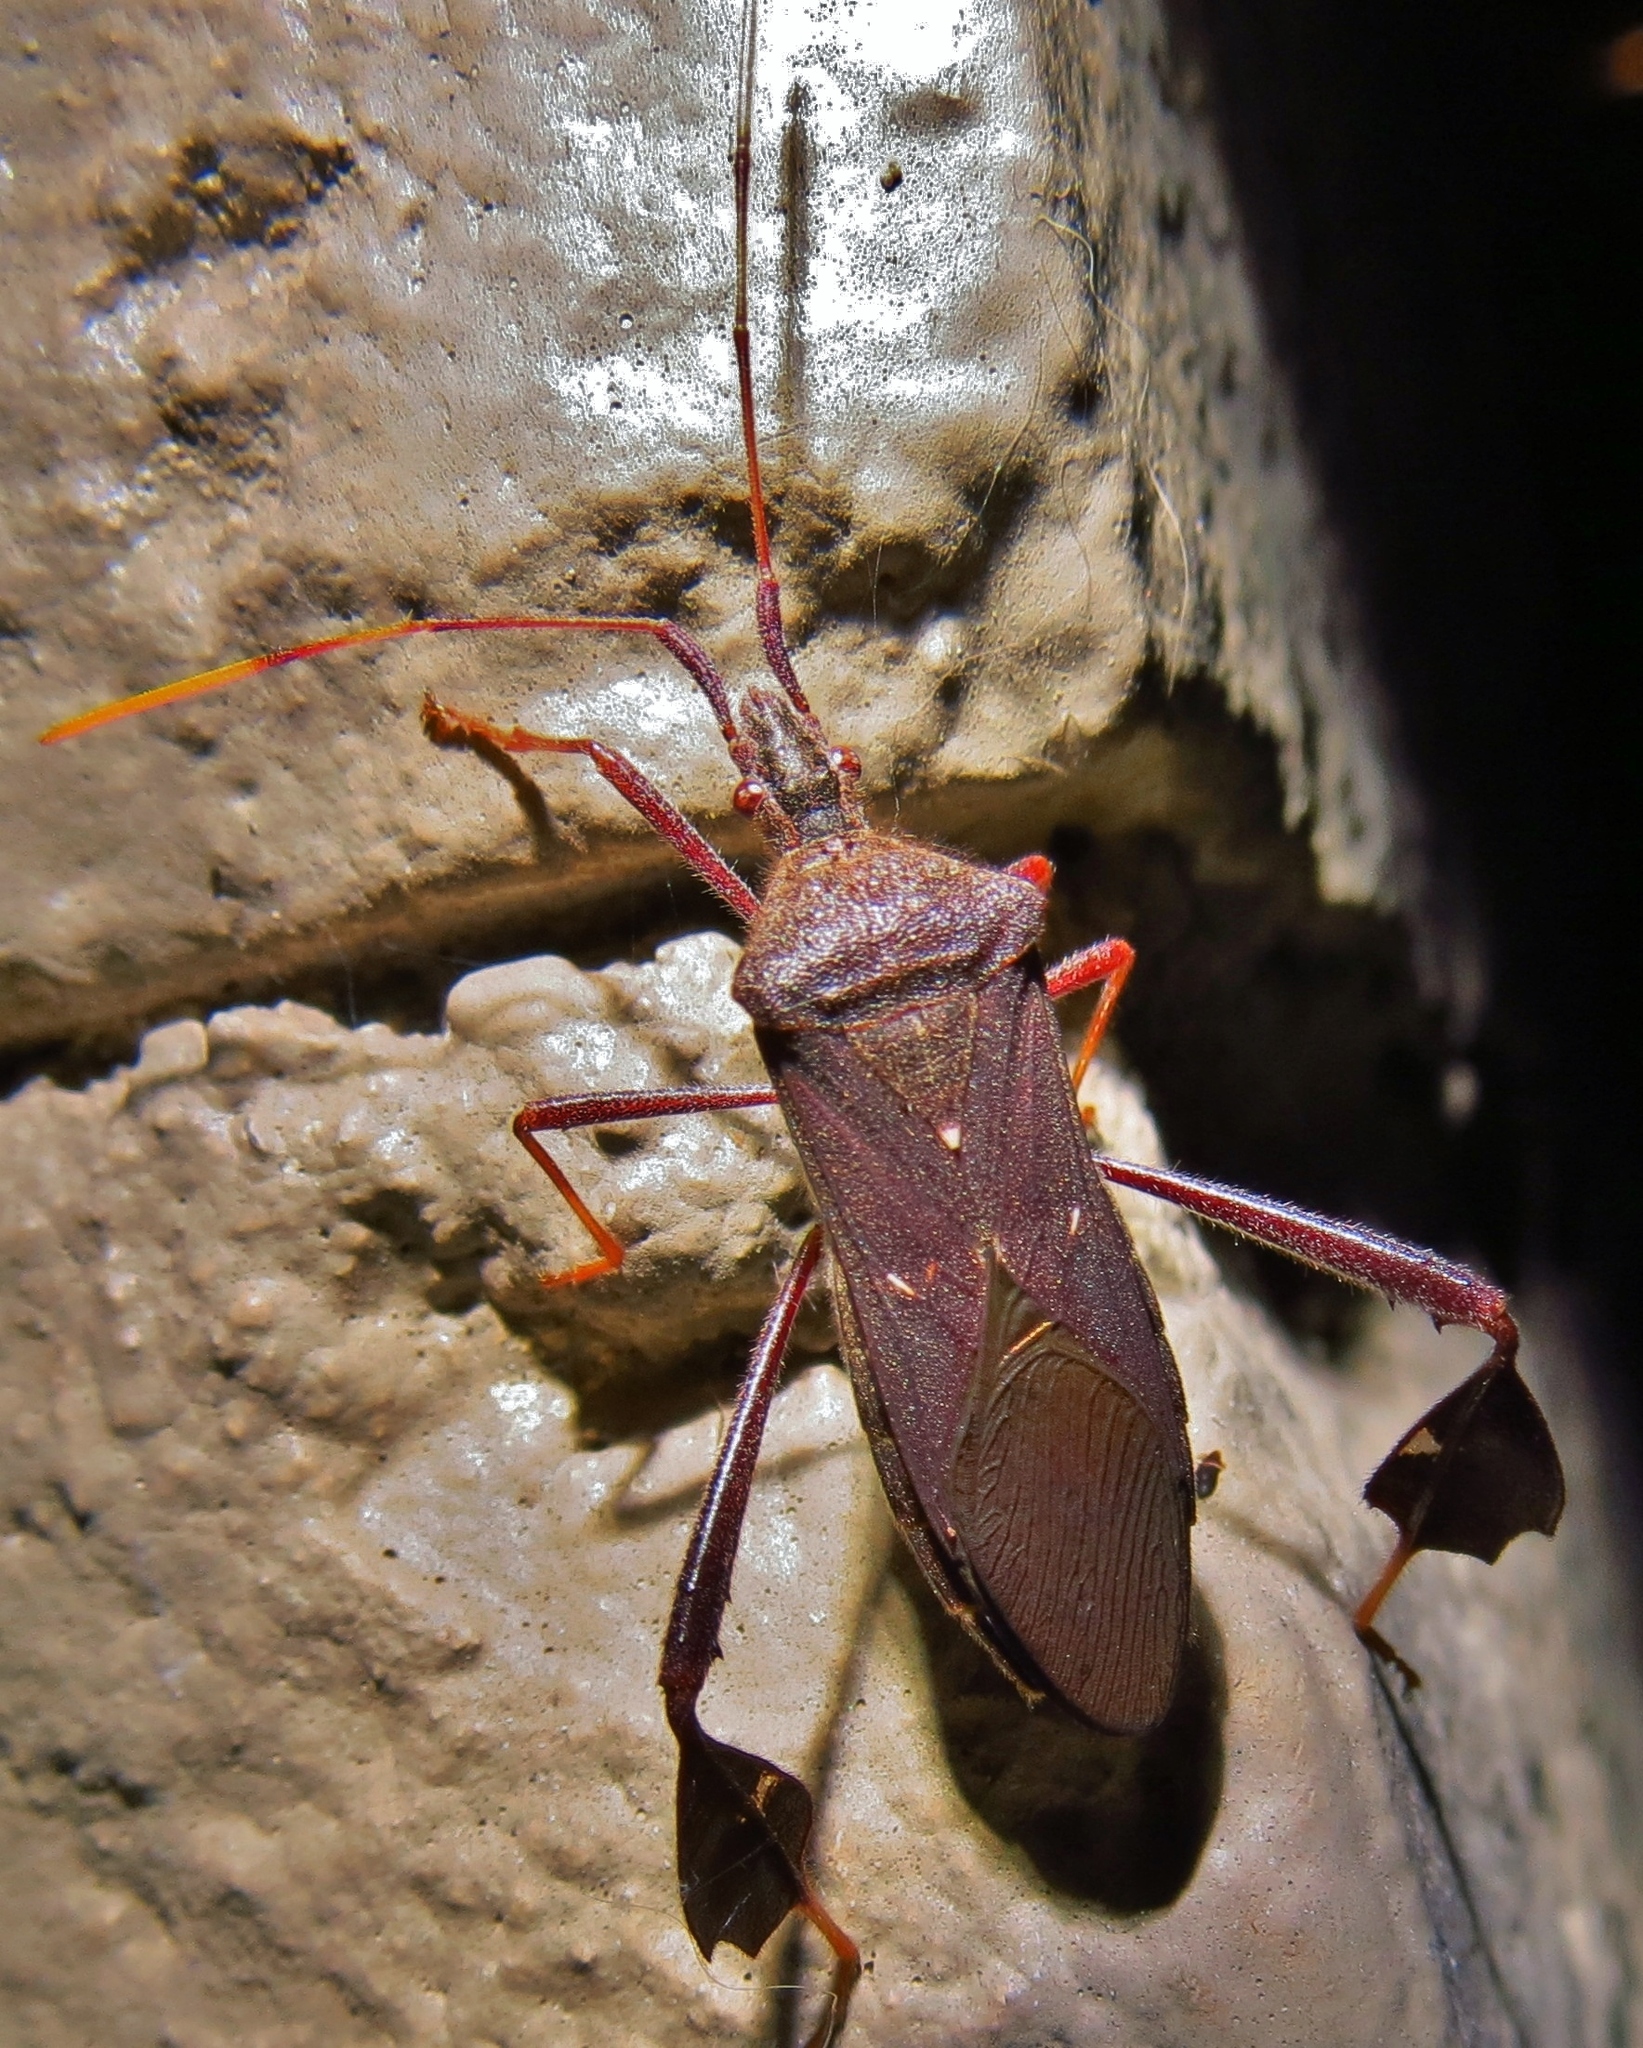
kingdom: Animalia
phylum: Arthropoda
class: Insecta
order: Hemiptera
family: Coreidae
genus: Leptoglossus
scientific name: Leptoglossus oppositus
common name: Northern leaf-footed bug
